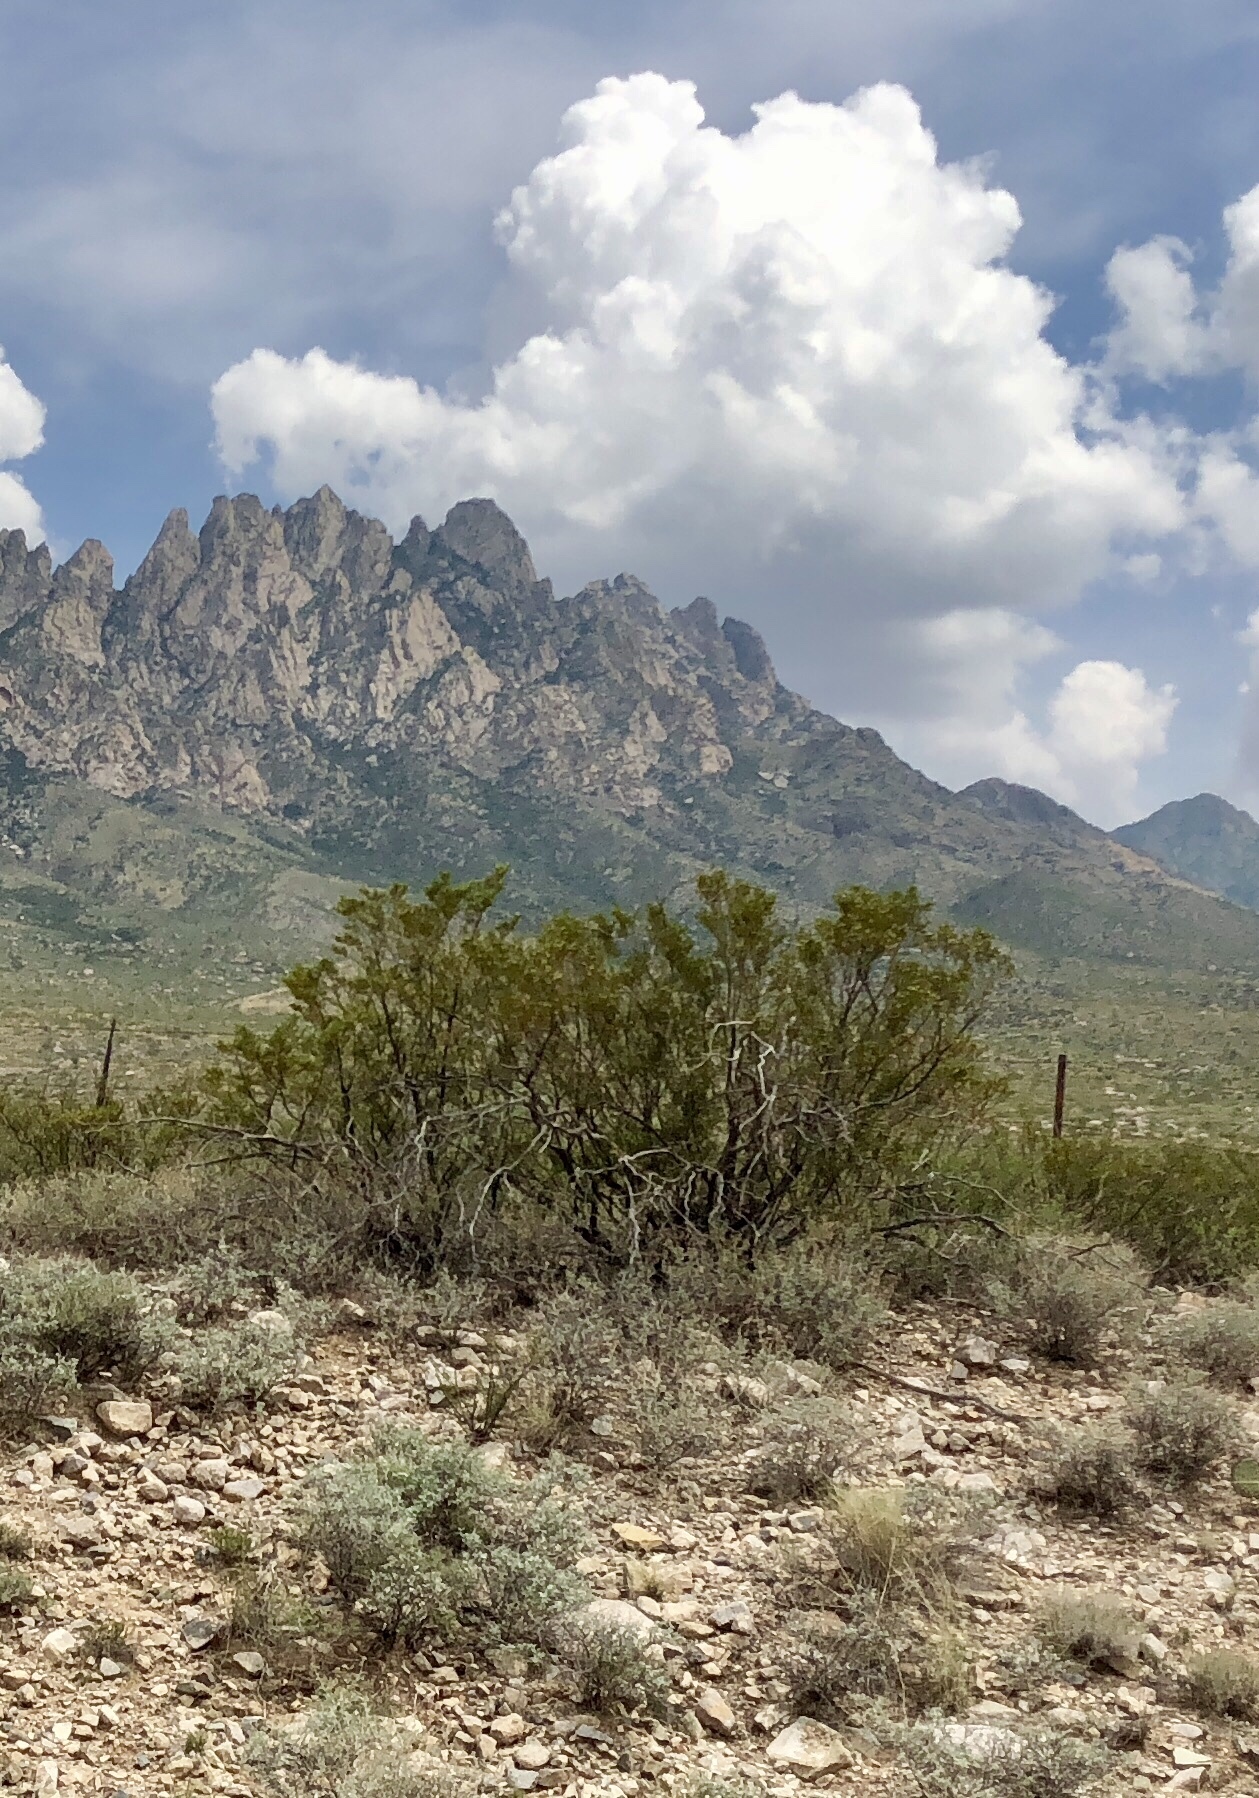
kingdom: Plantae
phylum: Tracheophyta
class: Magnoliopsida
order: Zygophyllales
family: Zygophyllaceae
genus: Larrea
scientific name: Larrea tridentata
